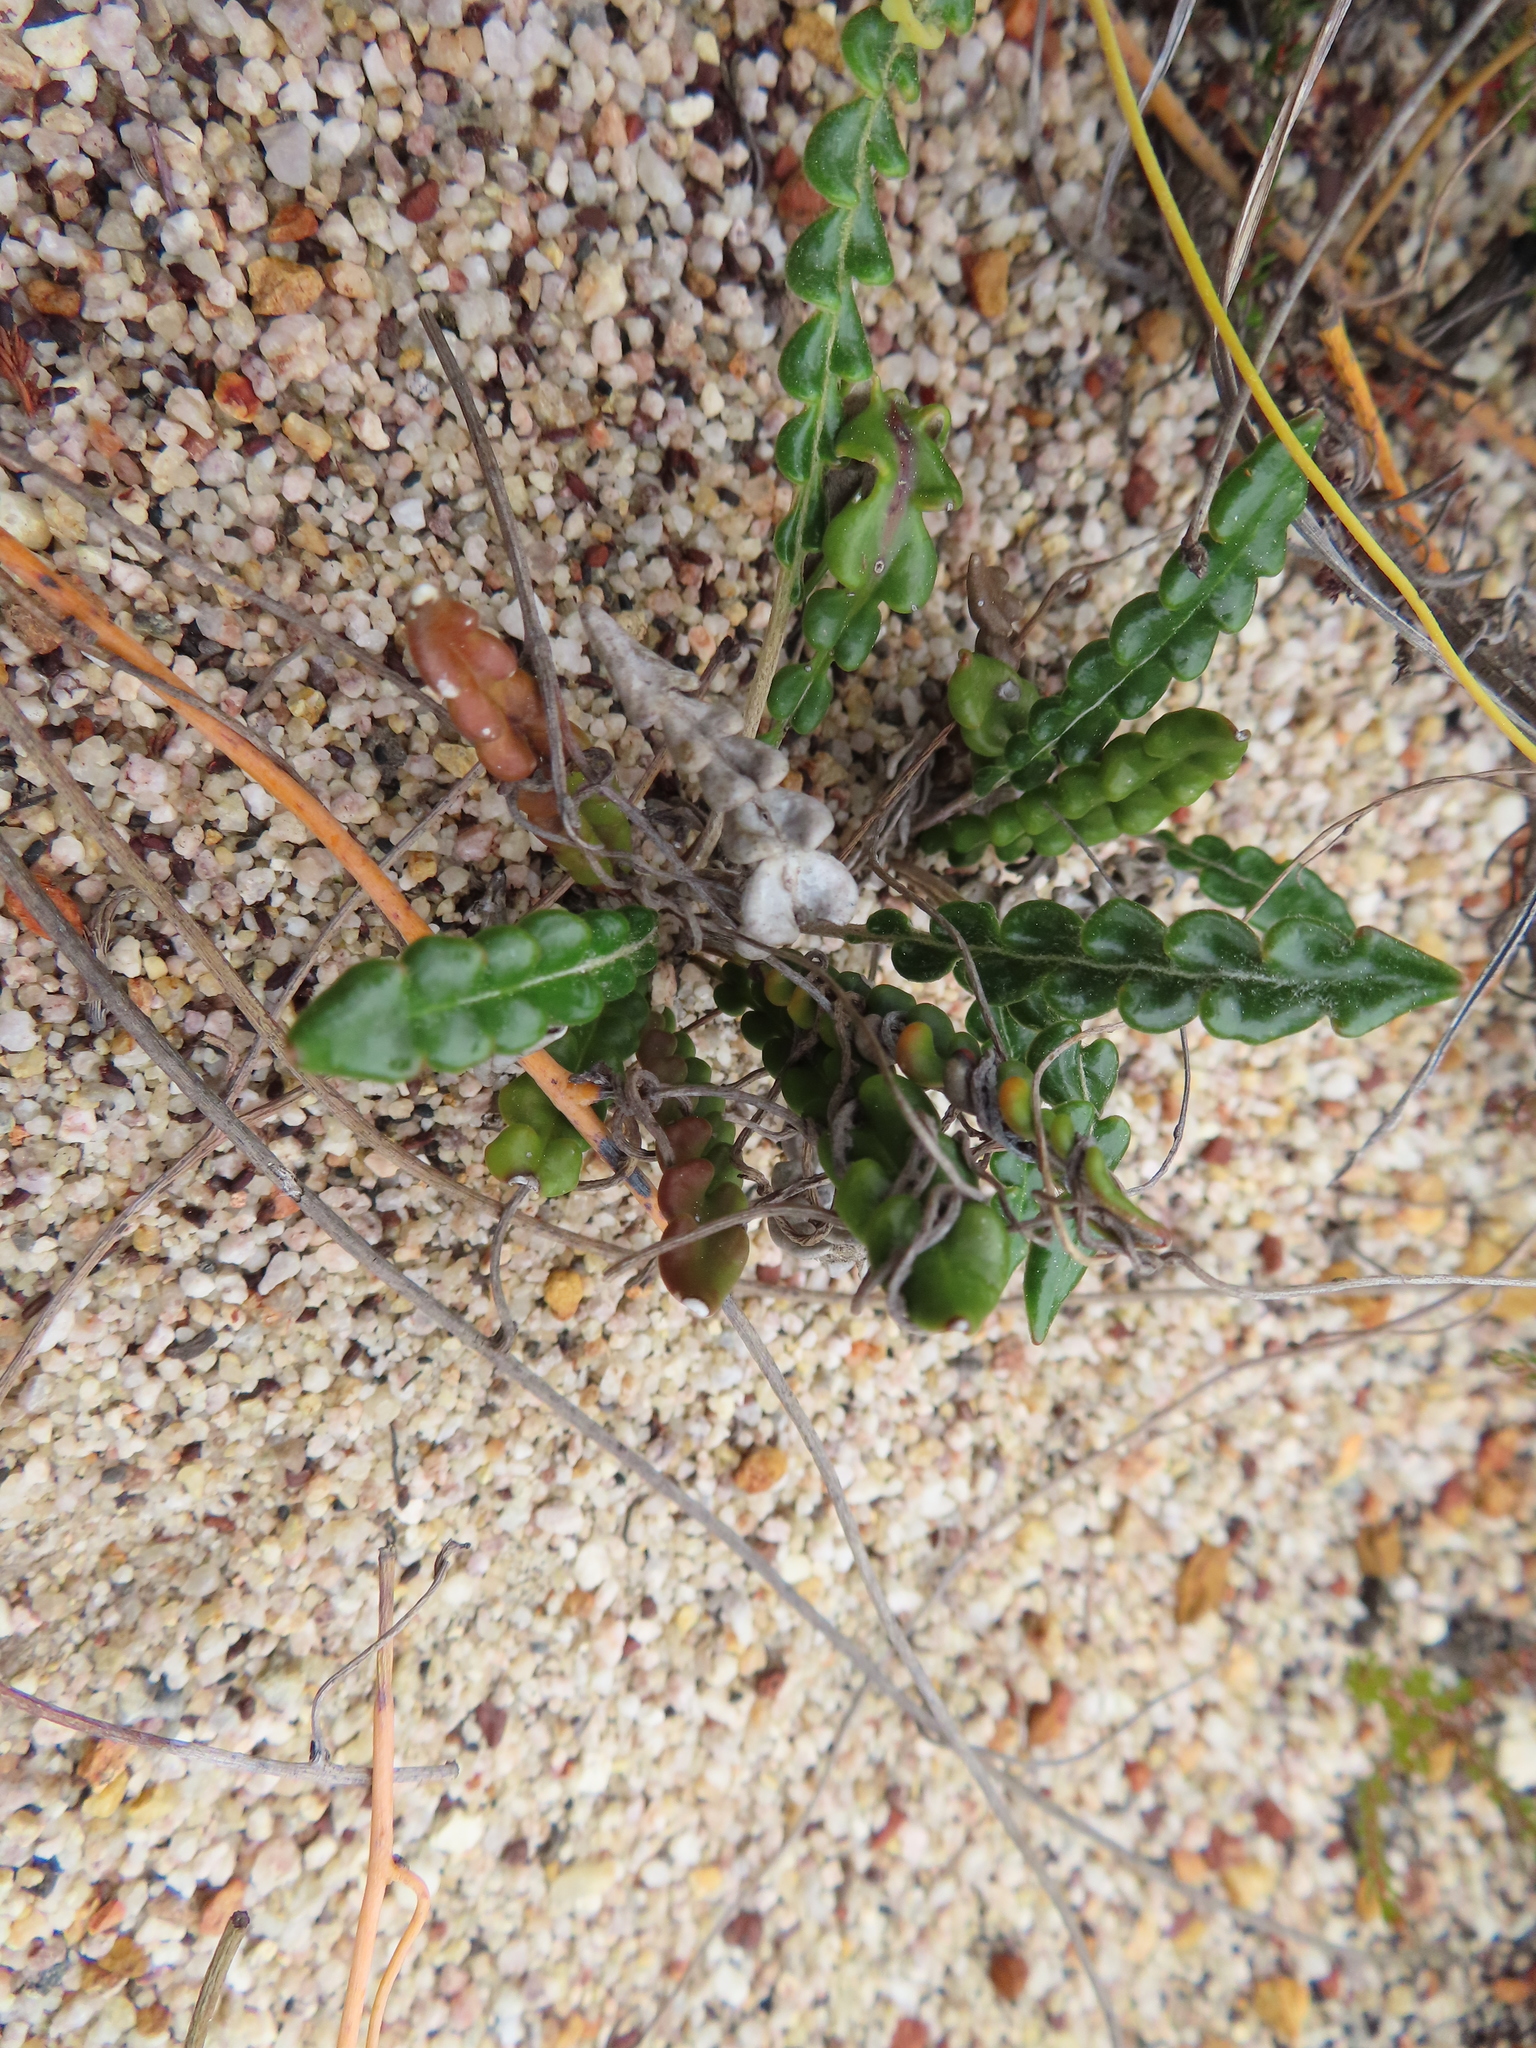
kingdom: Plantae
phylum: Tracheophyta
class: Magnoliopsida
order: Asterales
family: Asteraceae
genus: Gerbera
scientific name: Gerbera linnaei
